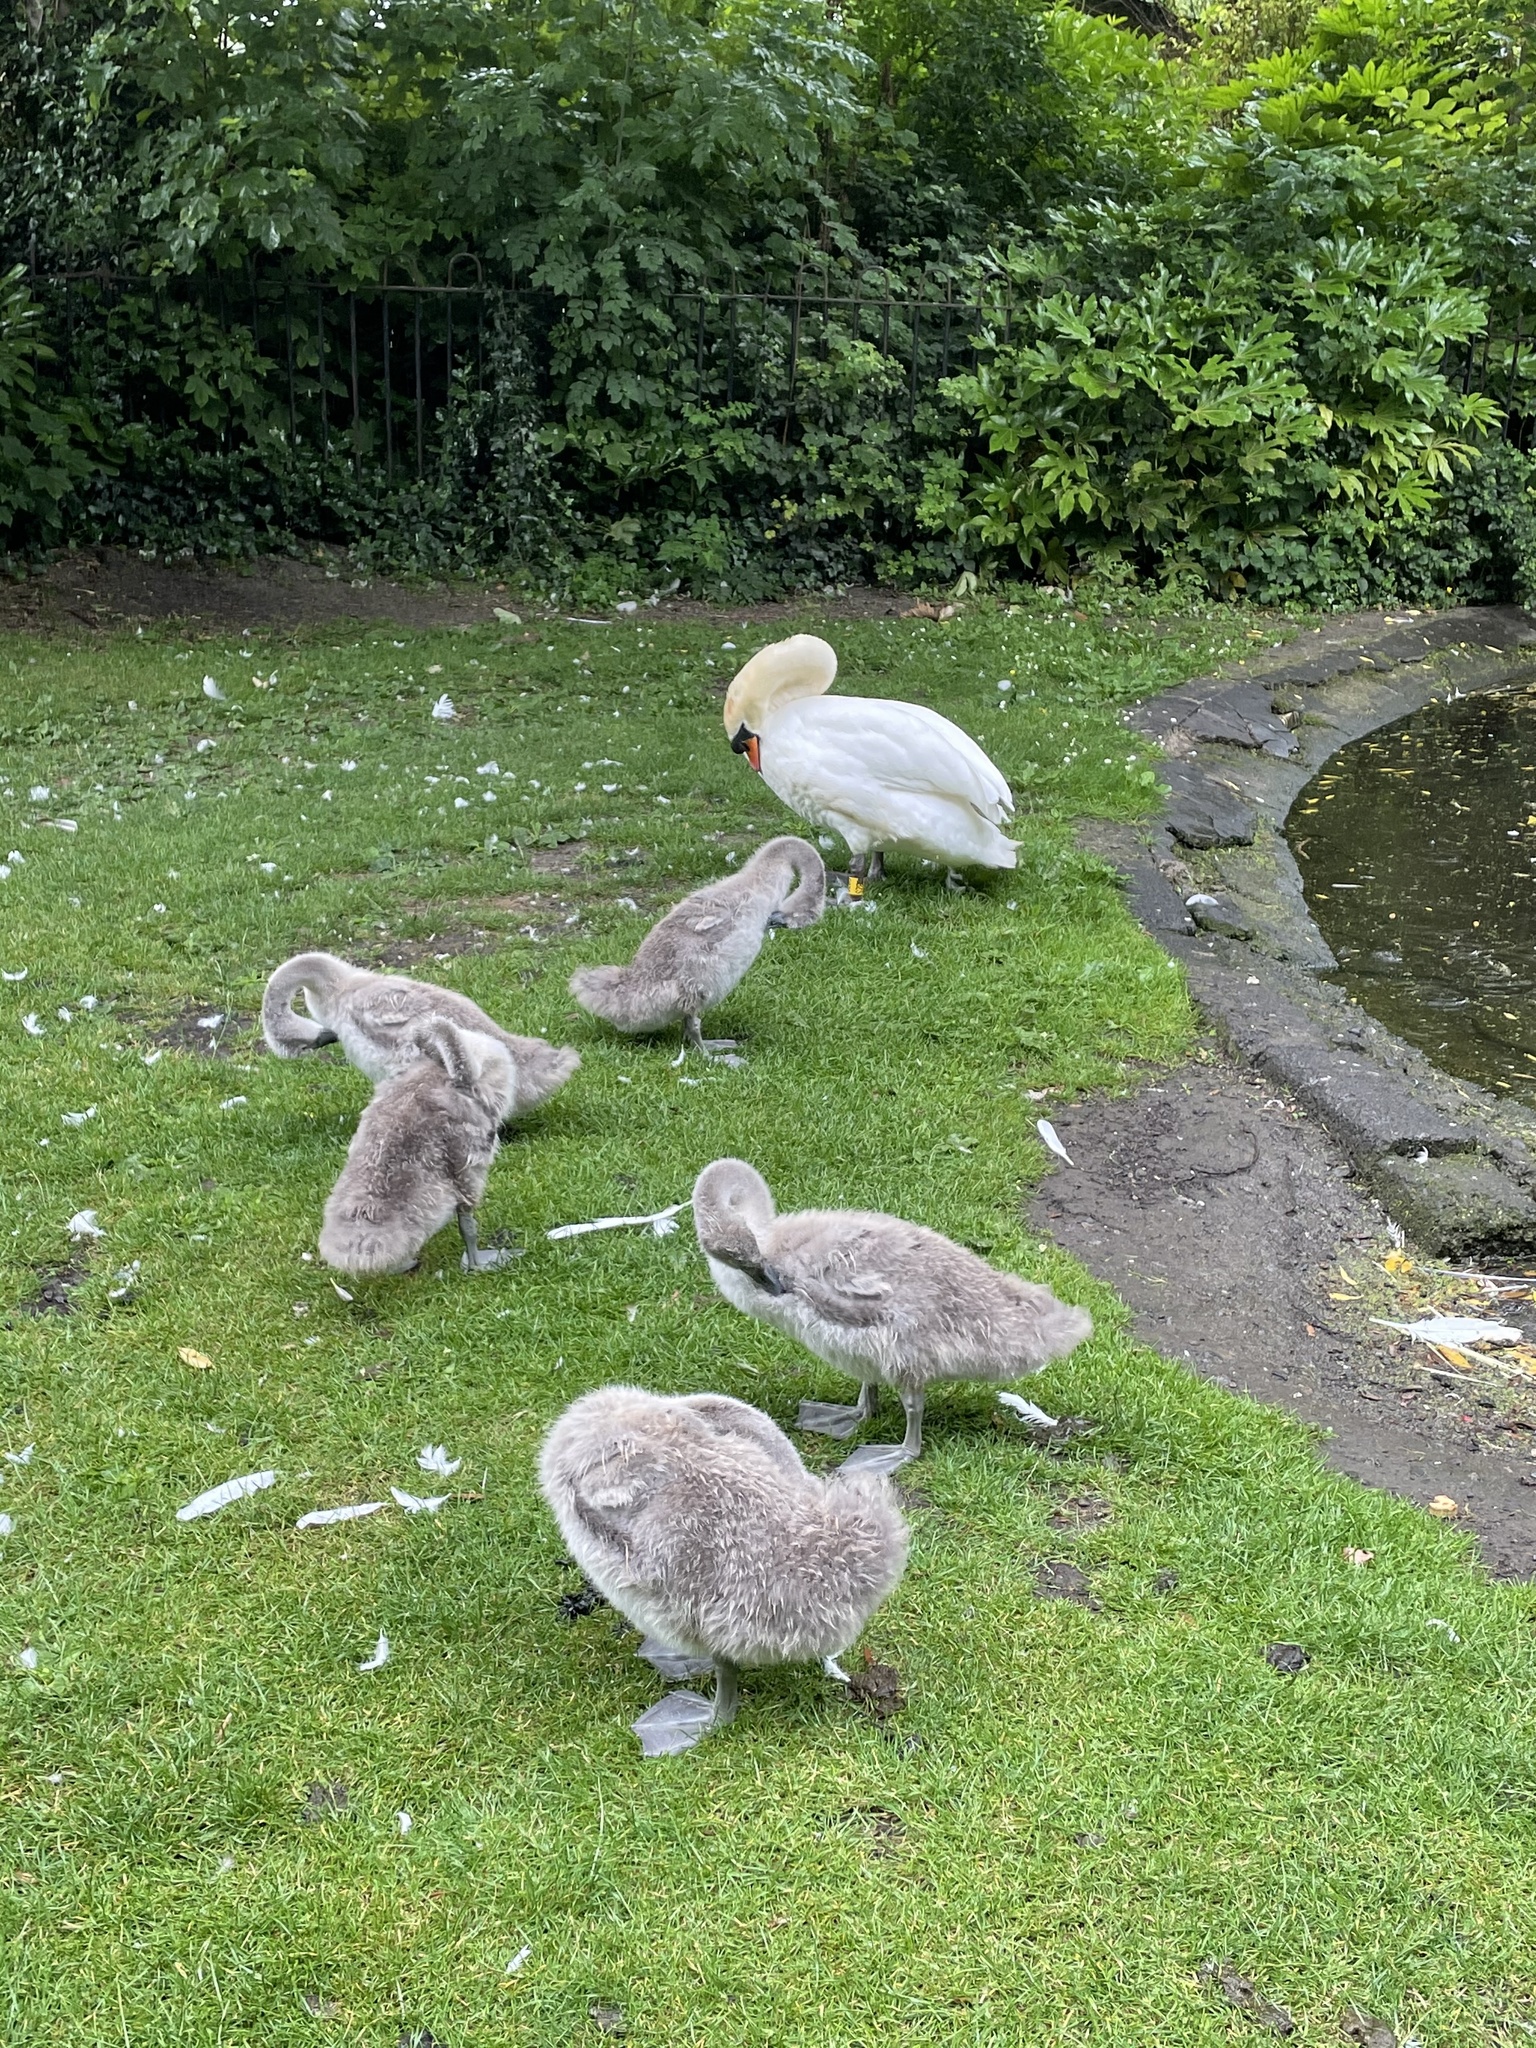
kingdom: Animalia
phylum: Chordata
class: Aves
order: Anseriformes
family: Anatidae
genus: Cygnus
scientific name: Cygnus olor
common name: Mute swan
